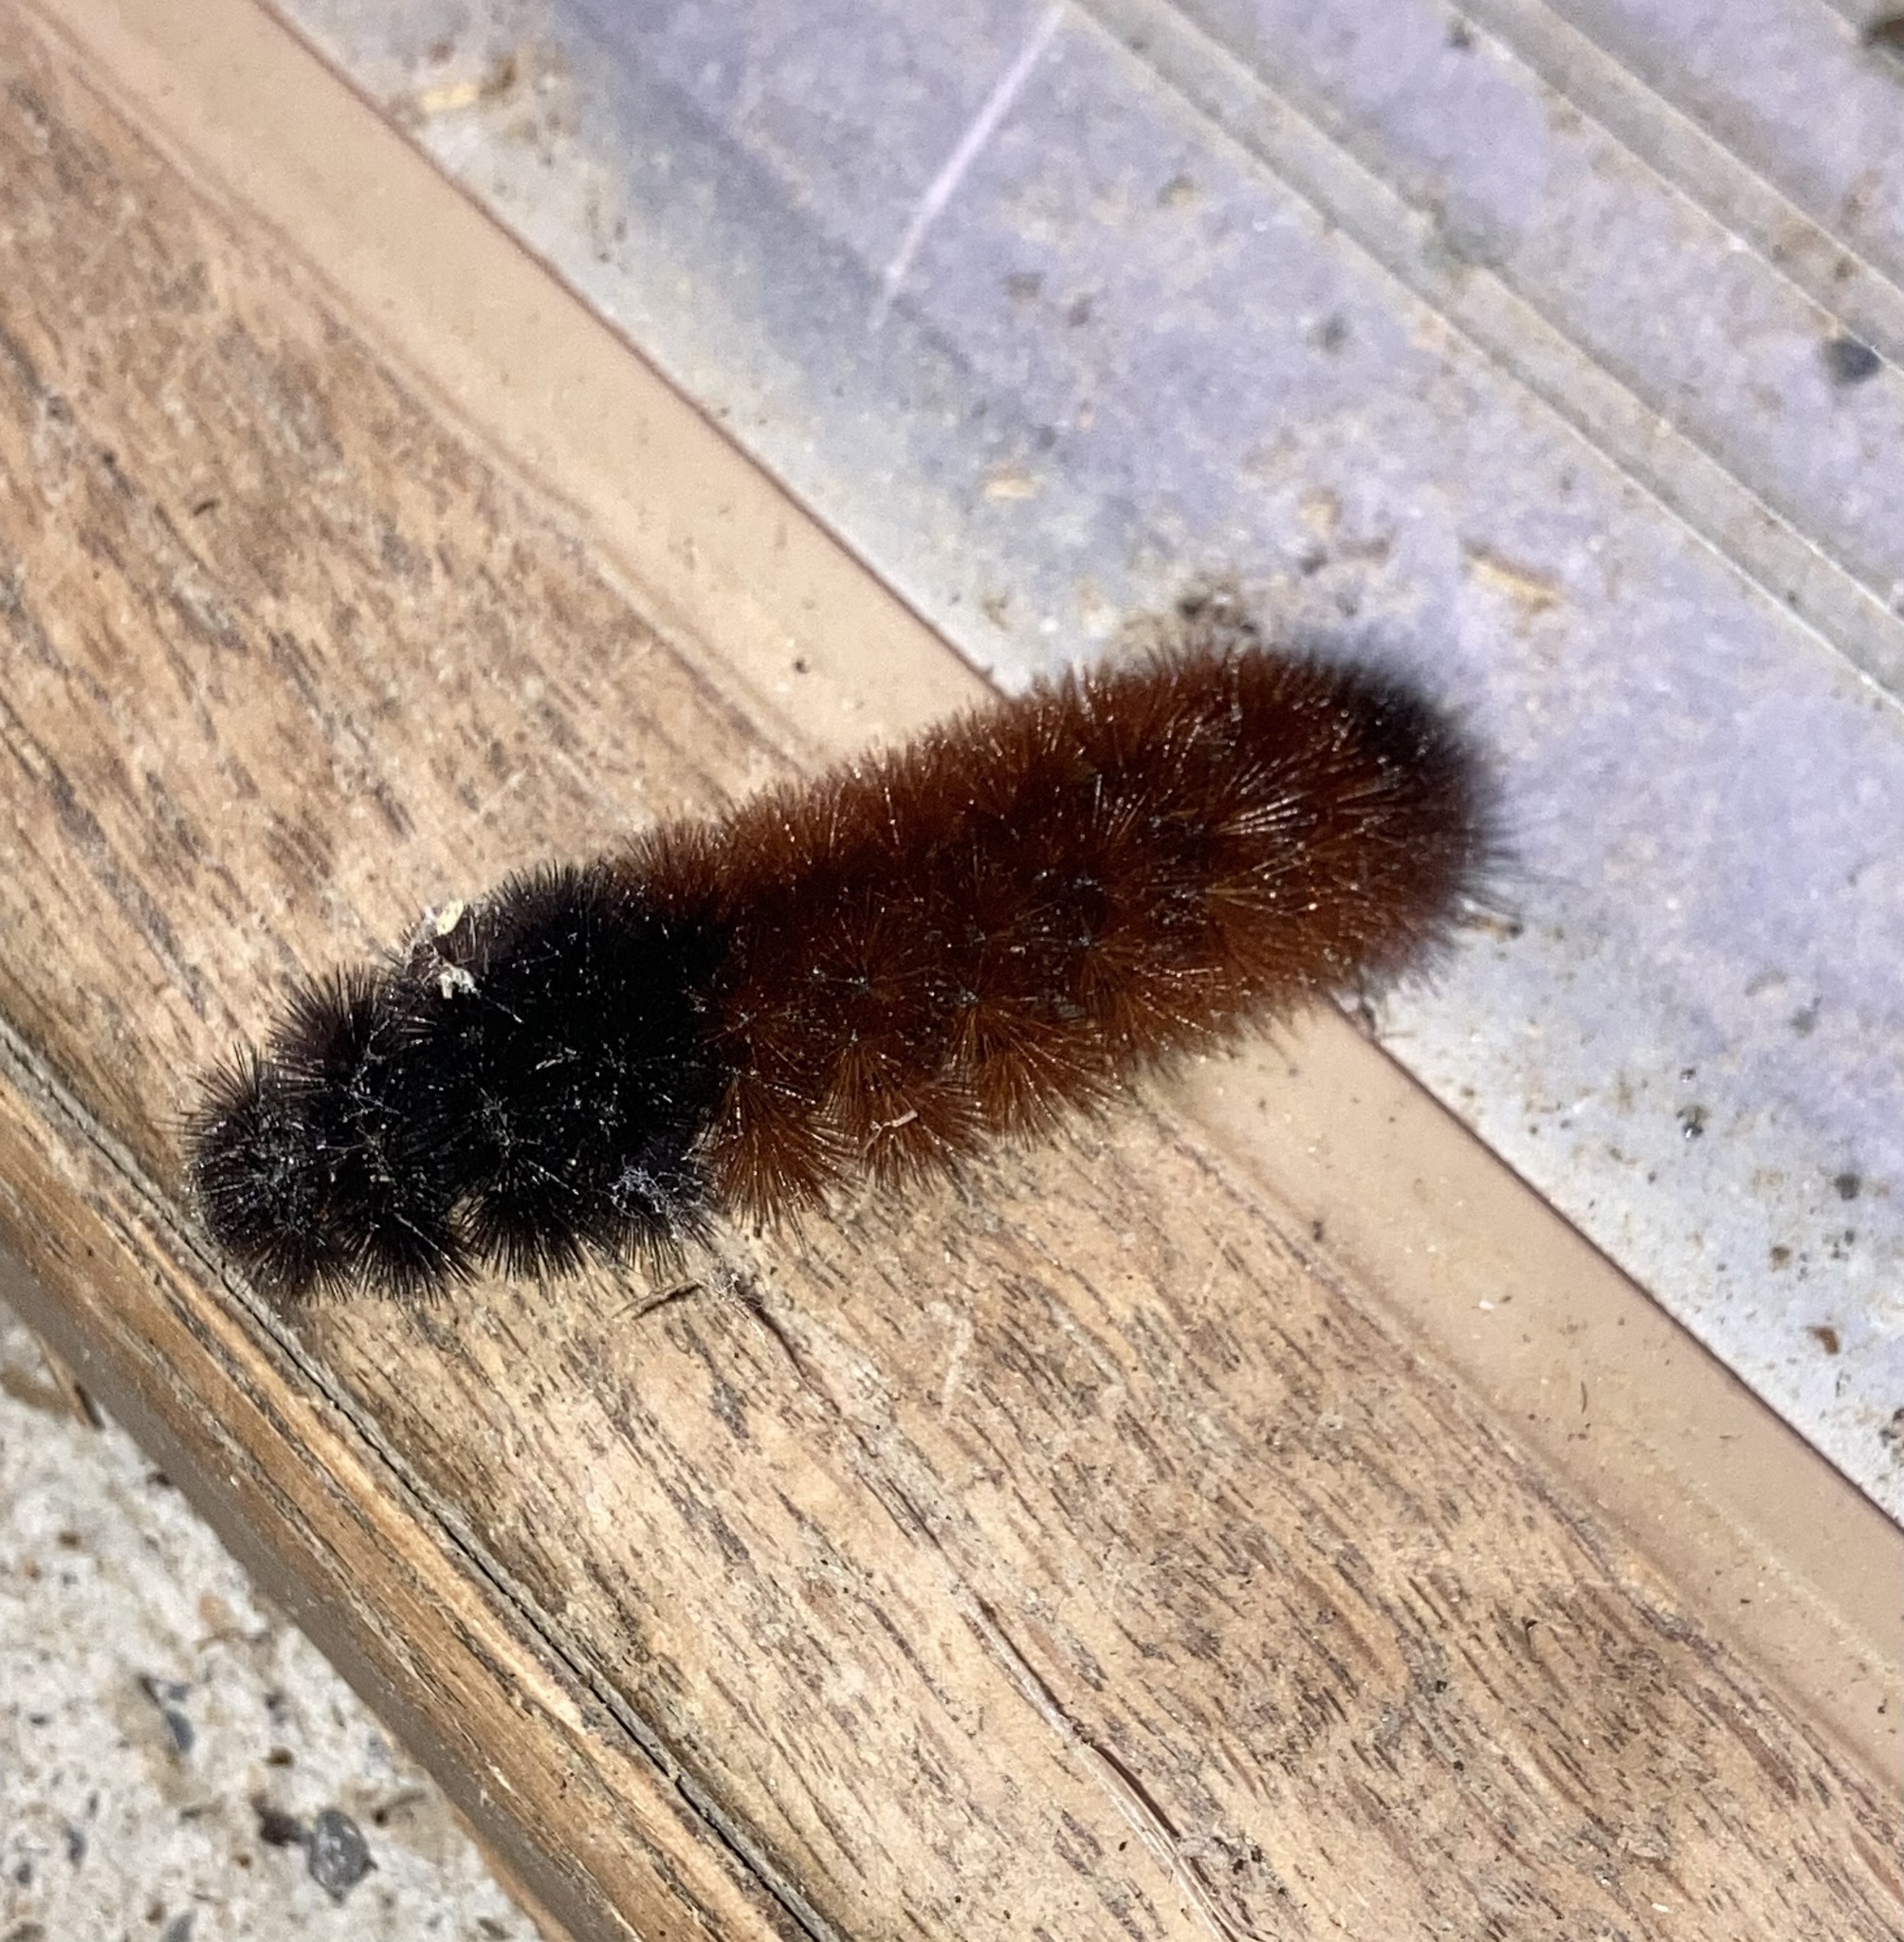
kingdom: Animalia
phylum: Arthropoda
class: Insecta
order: Lepidoptera
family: Erebidae
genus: Pyrrharctia
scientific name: Pyrrharctia isabella
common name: Isabella tiger moth
